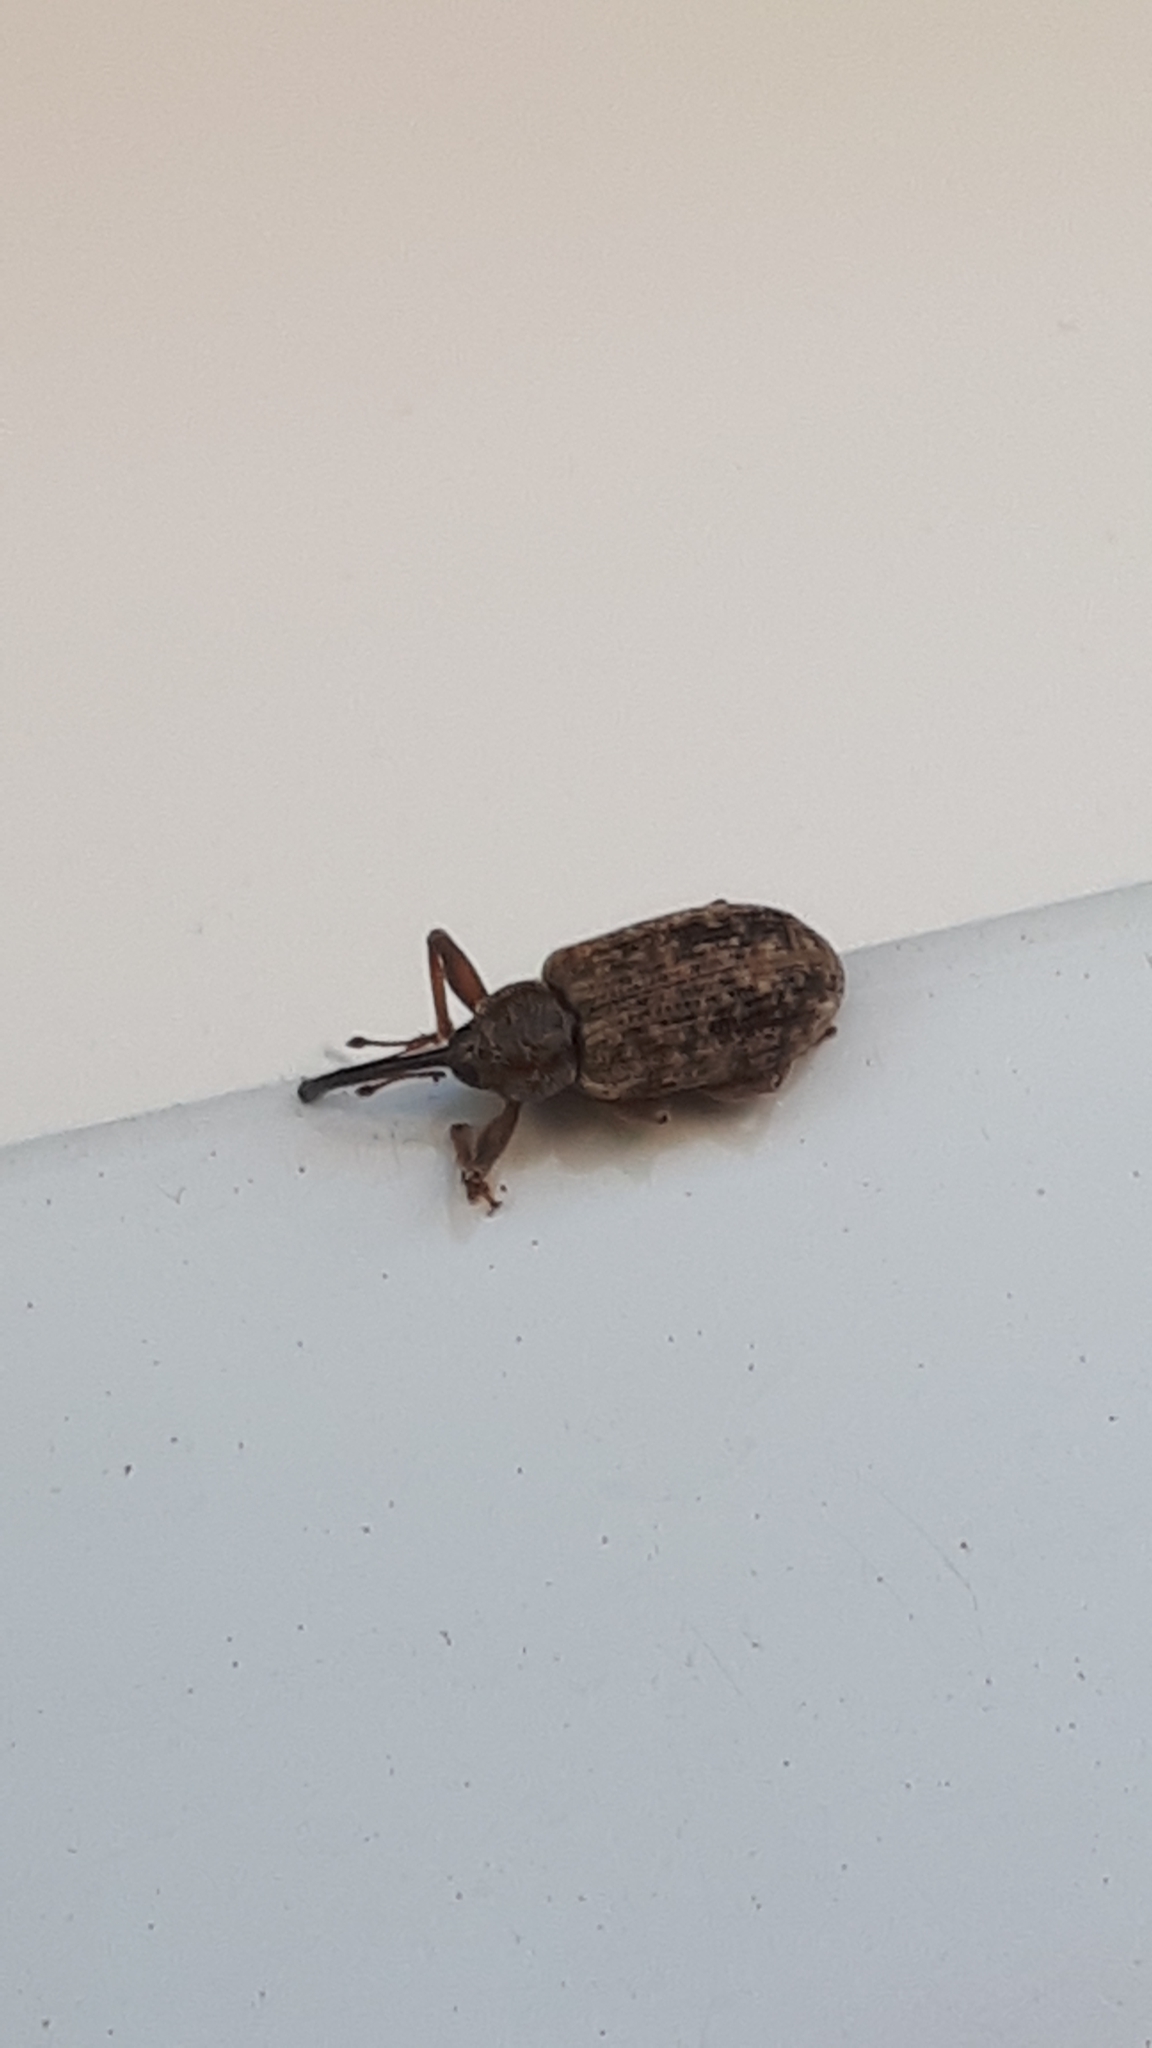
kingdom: Animalia
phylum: Arthropoda
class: Insecta
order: Coleoptera
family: Curculionidae
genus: Dorytomus
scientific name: Dorytomus longimanus
